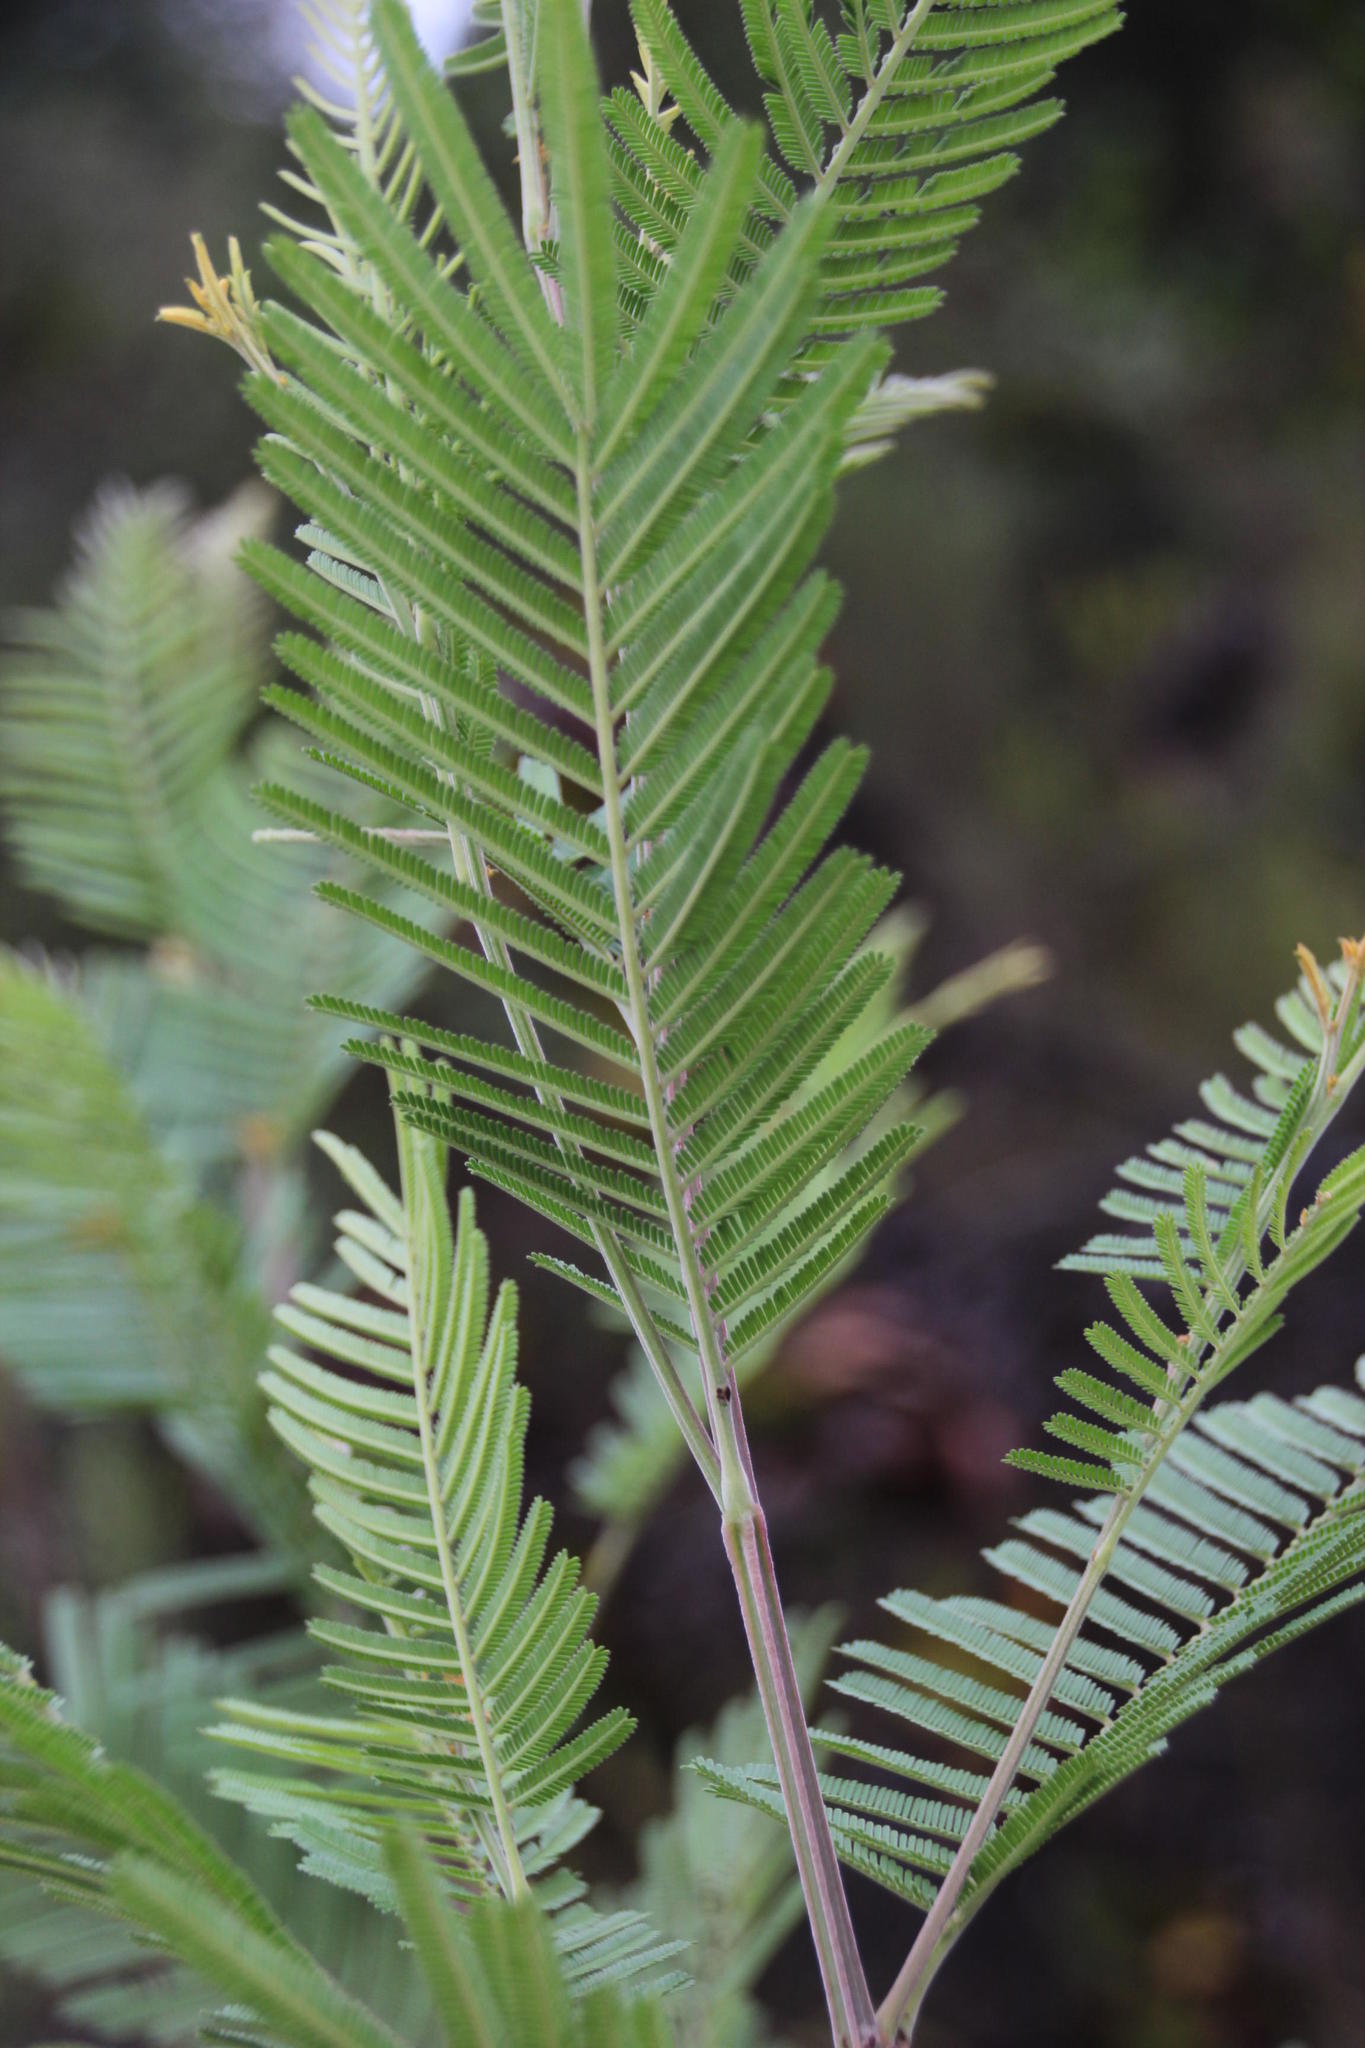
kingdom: Plantae
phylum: Tracheophyta
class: Magnoliopsida
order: Fabales
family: Fabaceae
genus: Acacia
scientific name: Acacia mearnsii
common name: Black wattle
